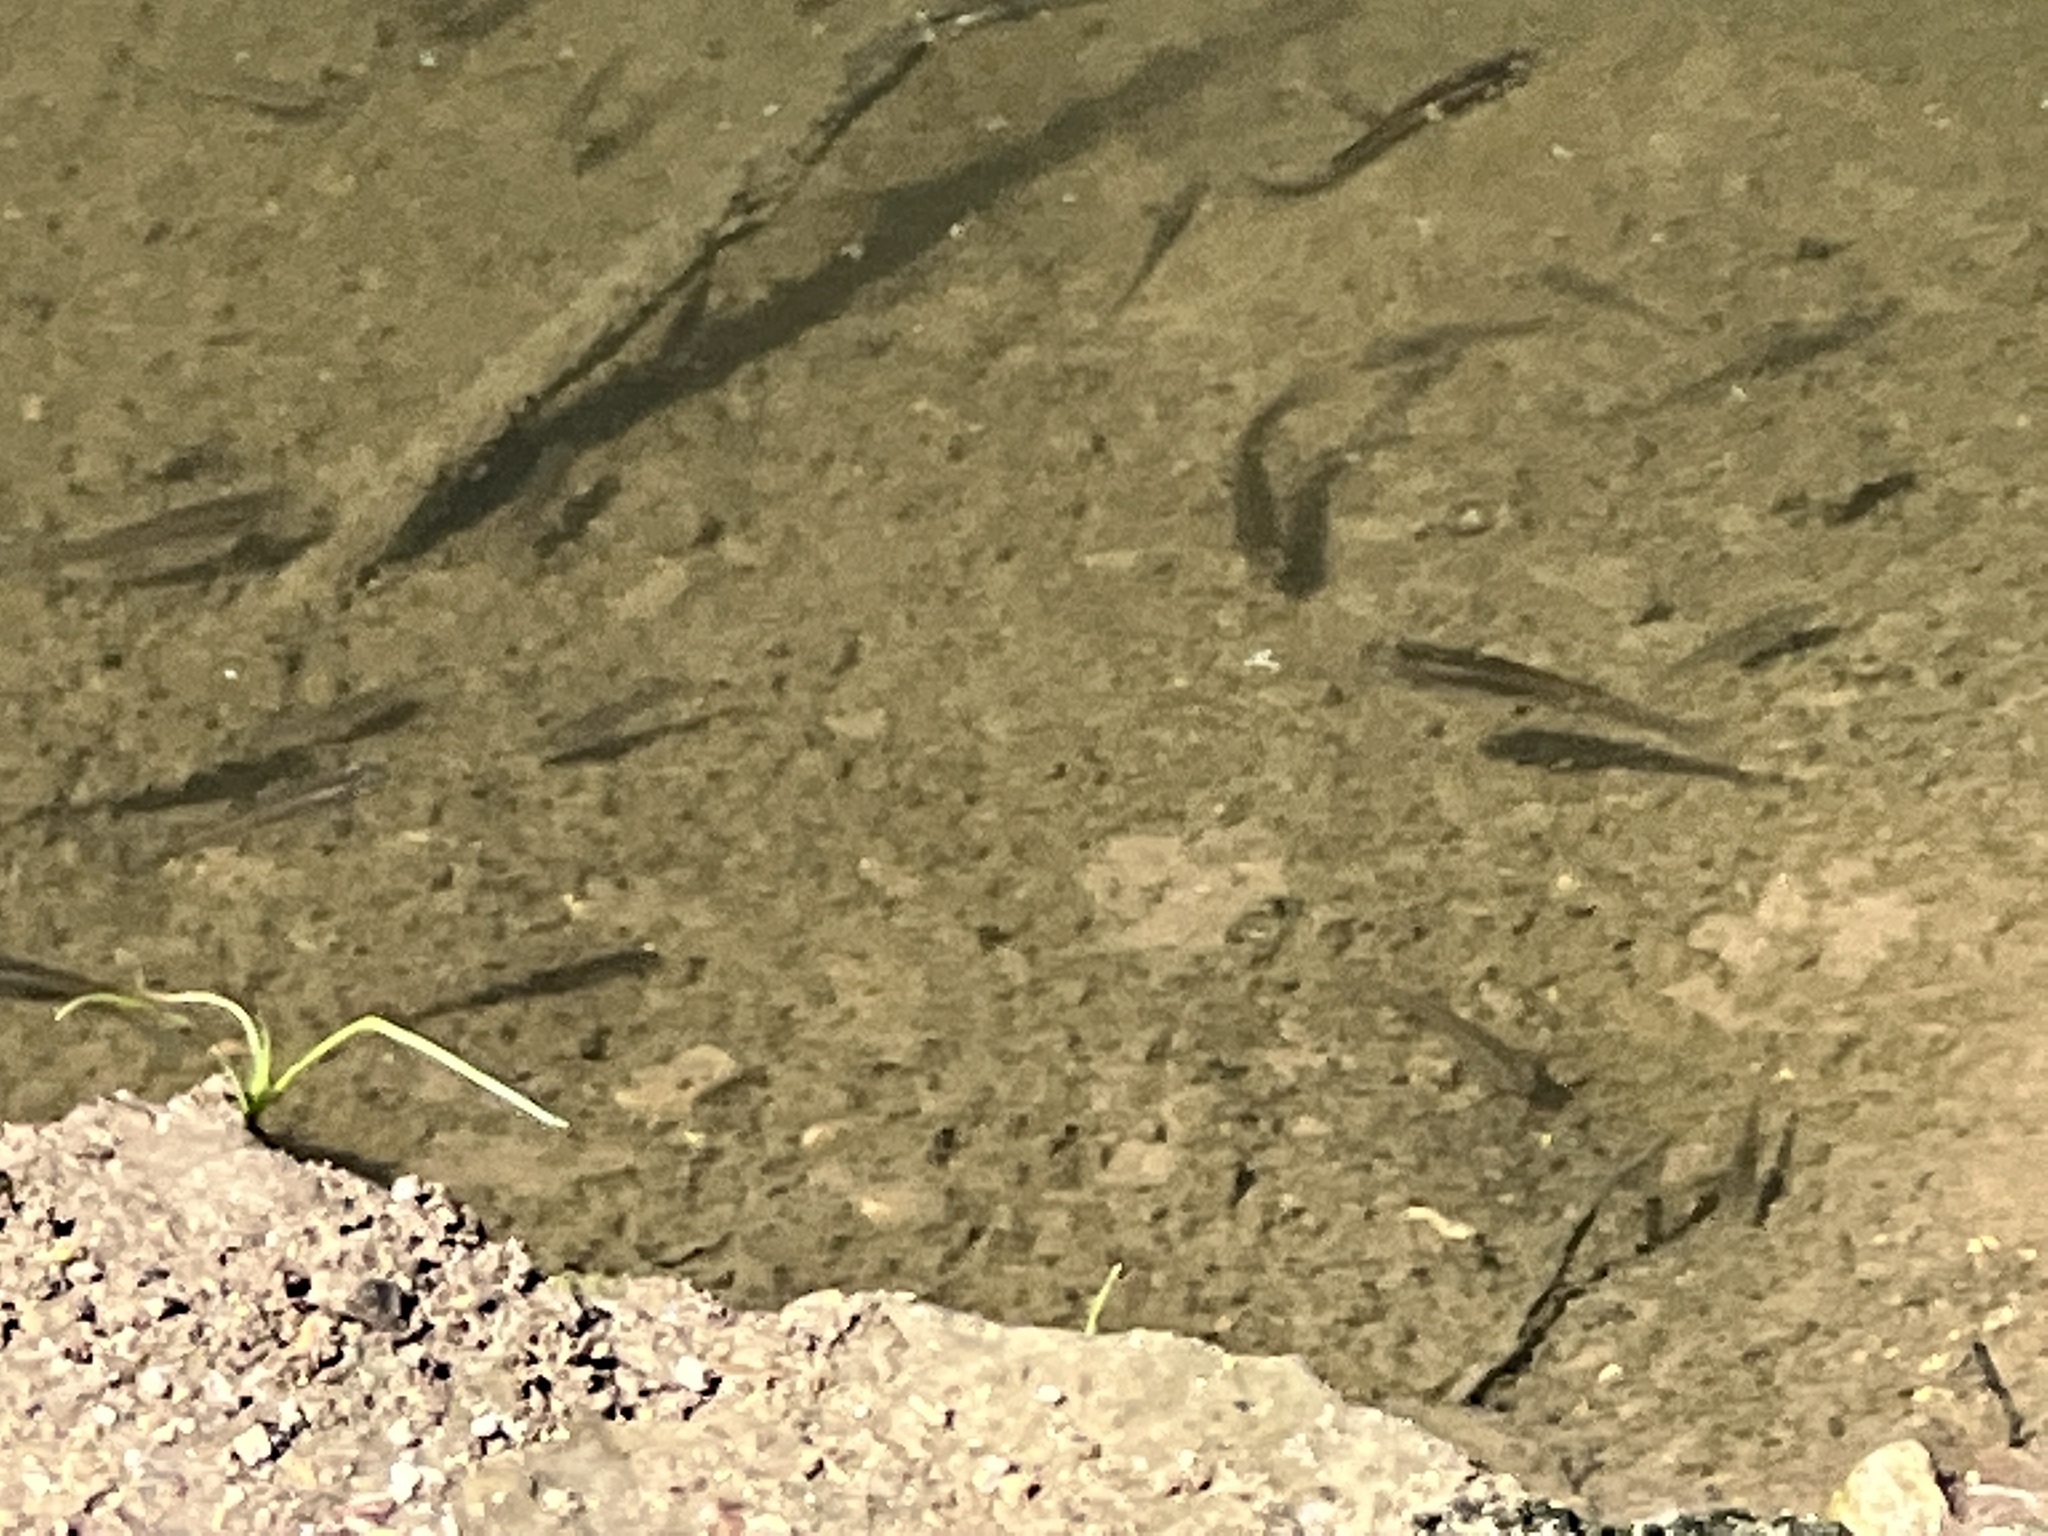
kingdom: Animalia
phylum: Chordata
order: Cyprinodontiformes
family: Poeciliidae
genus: Gambusia
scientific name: Gambusia affinis
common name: Mosquitofish
